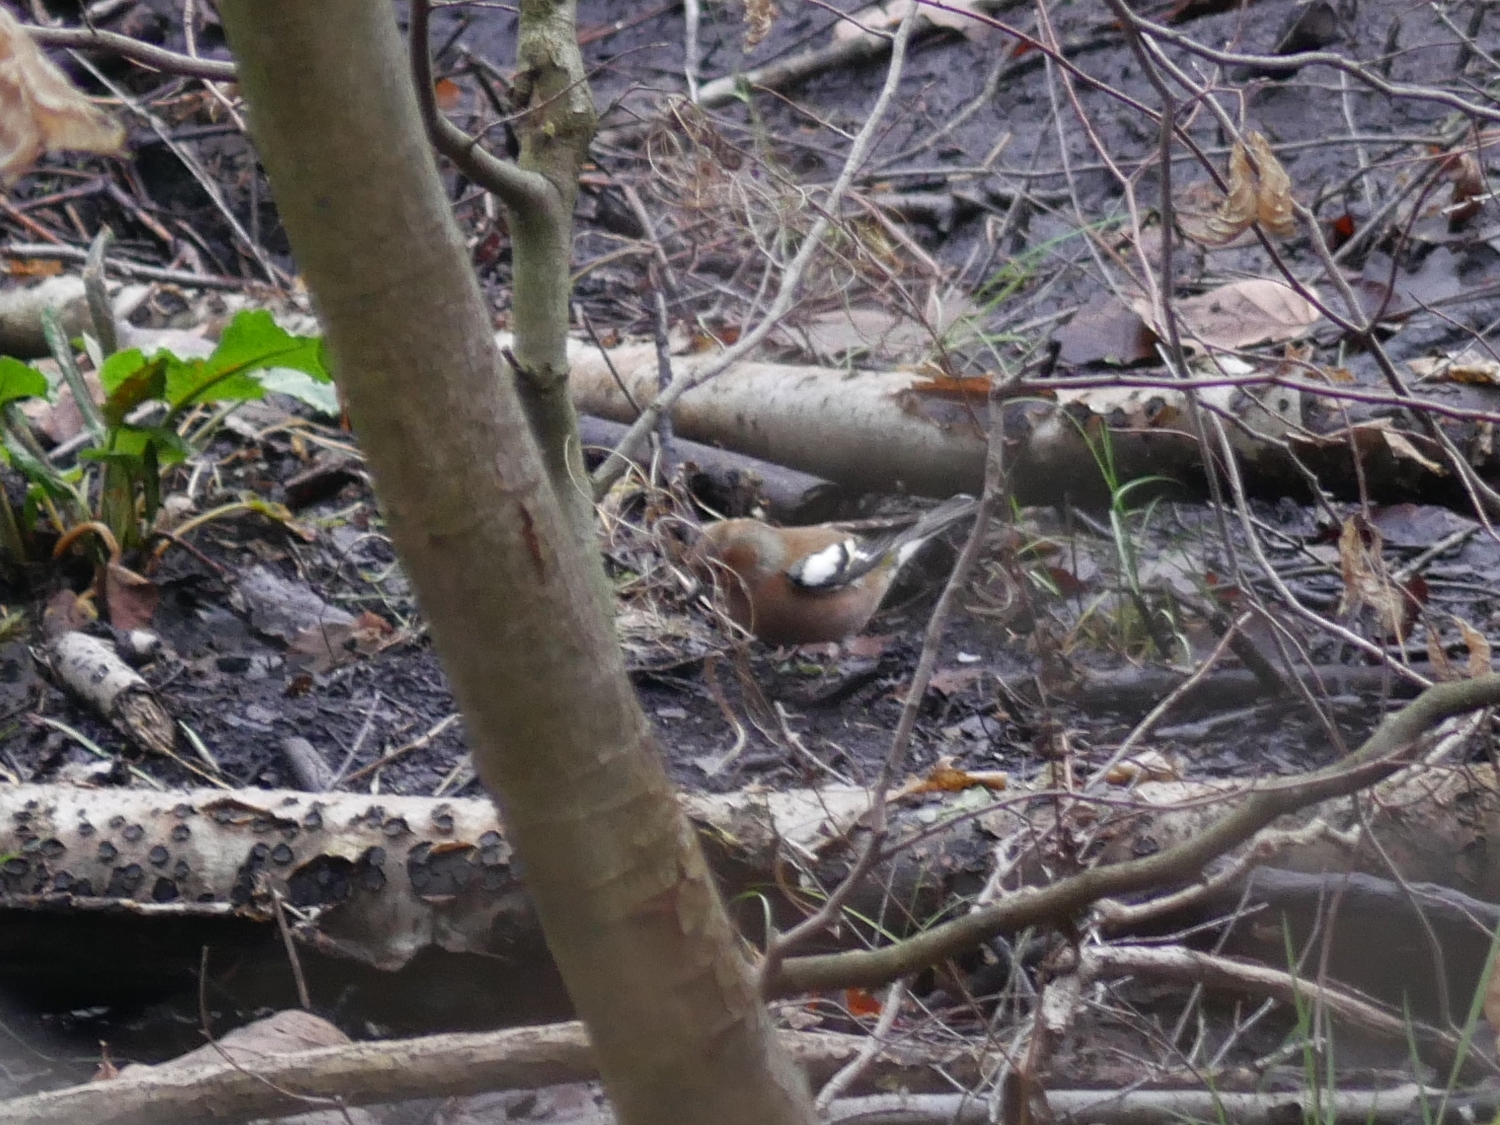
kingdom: Animalia
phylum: Chordata
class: Aves
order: Passeriformes
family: Fringillidae
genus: Fringilla
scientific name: Fringilla coelebs
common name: Common chaffinch
